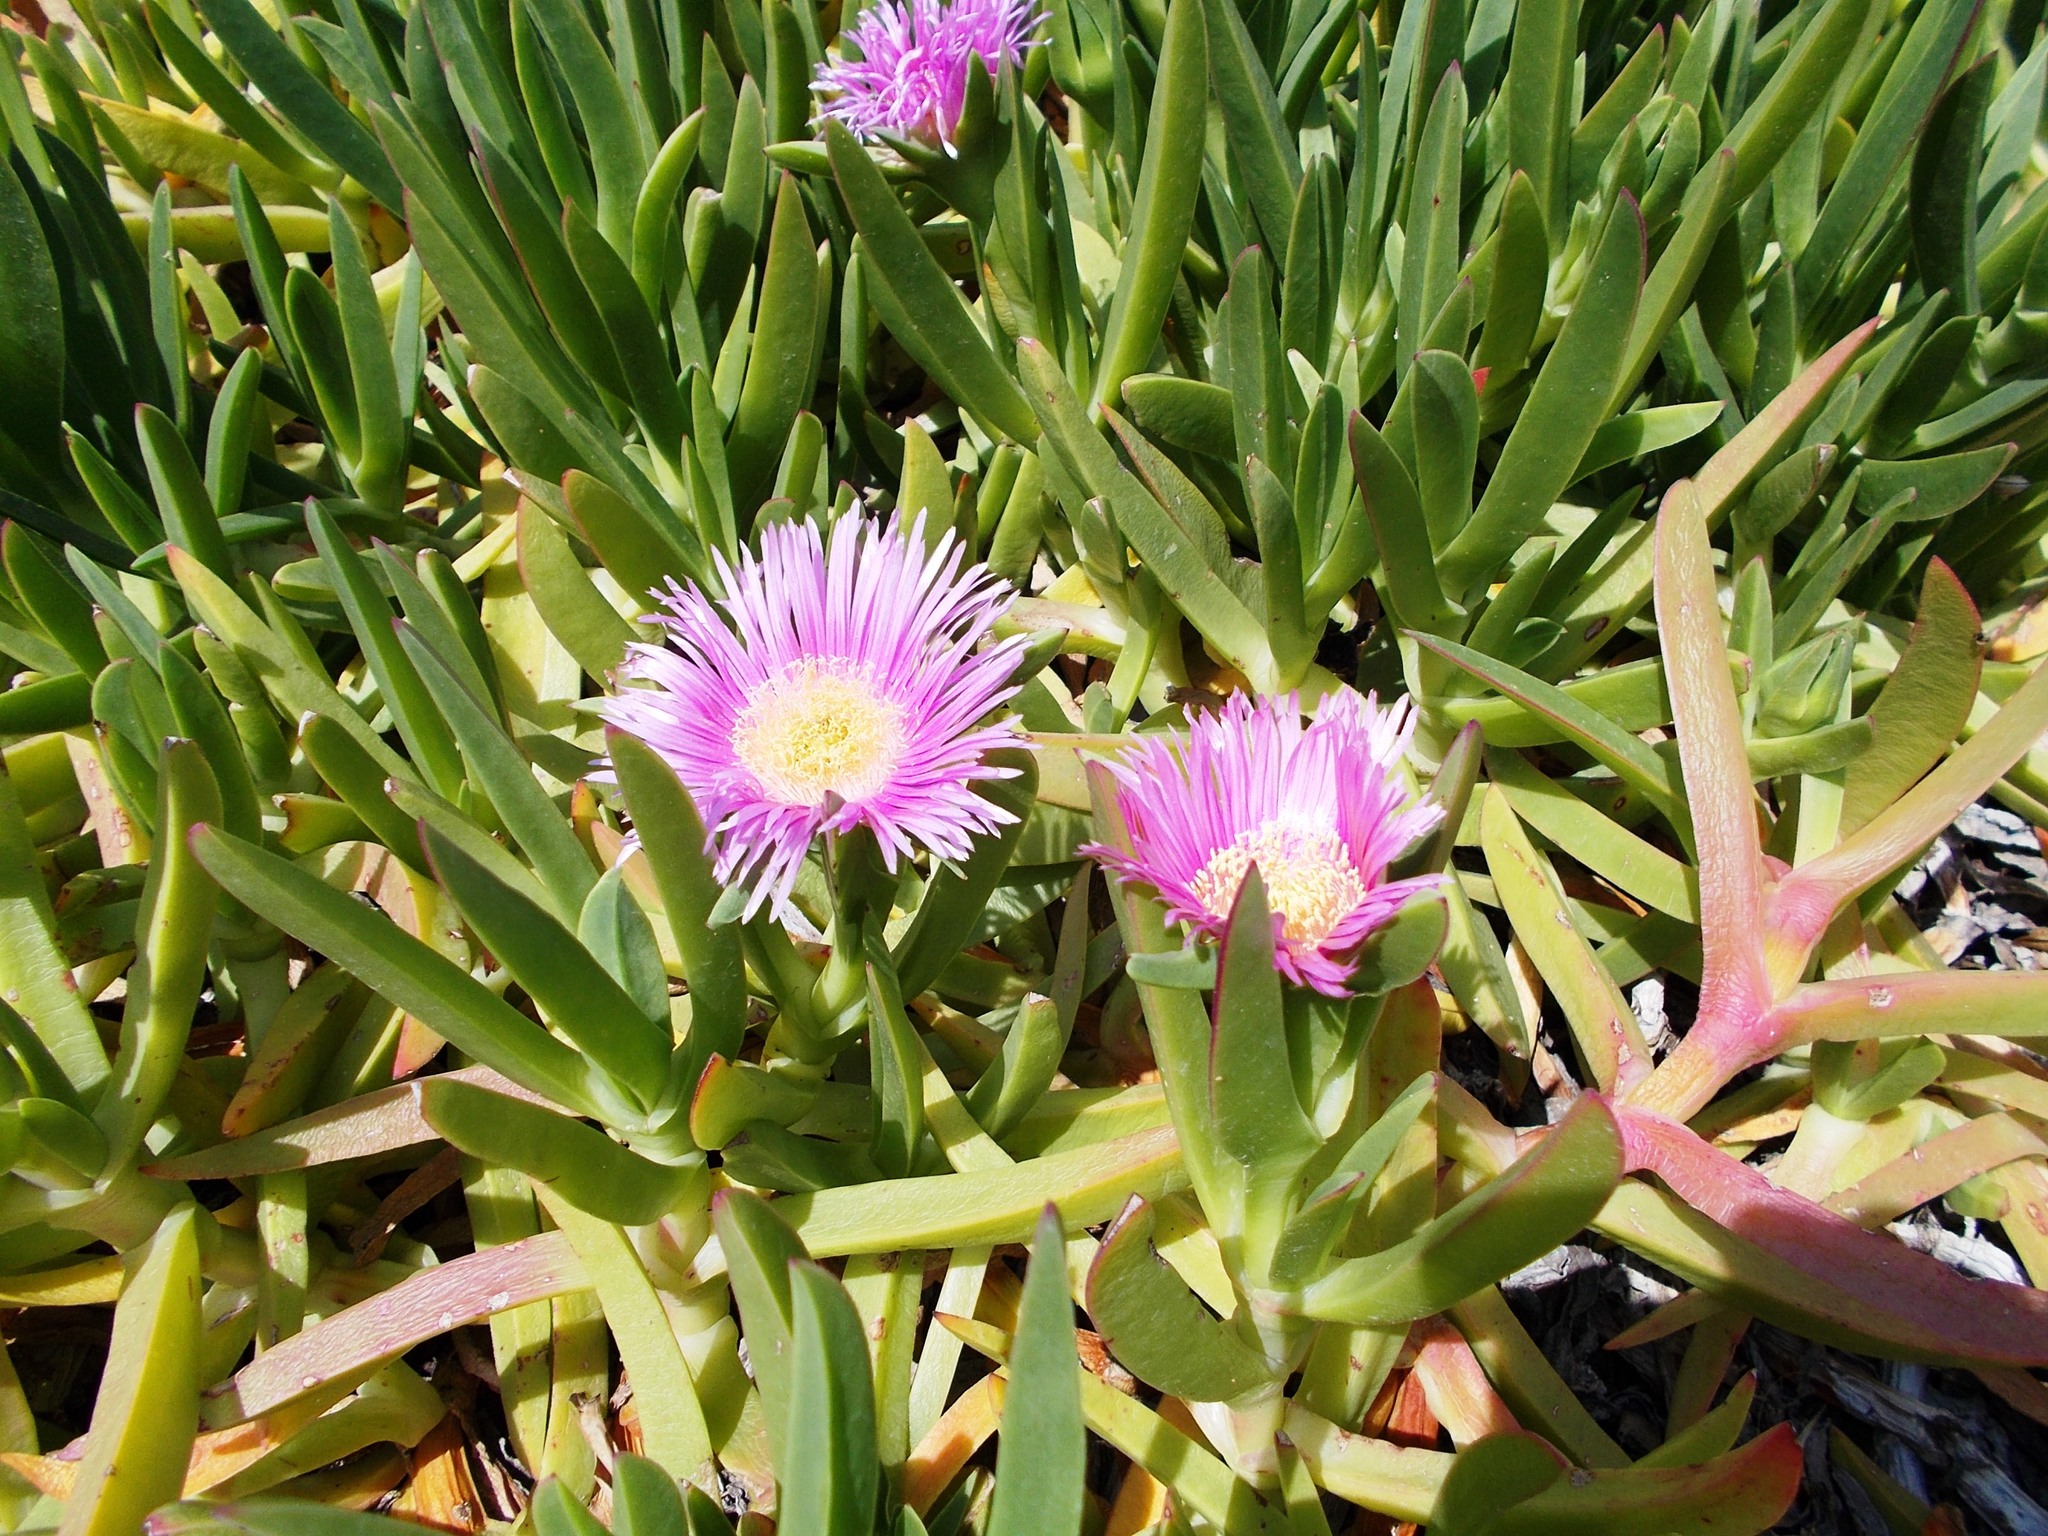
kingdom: Plantae
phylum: Tracheophyta
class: Magnoliopsida
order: Caryophyllales
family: Aizoaceae
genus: Carpobrotus
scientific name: Carpobrotus acinaciformis
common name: Sally-my-handsome
